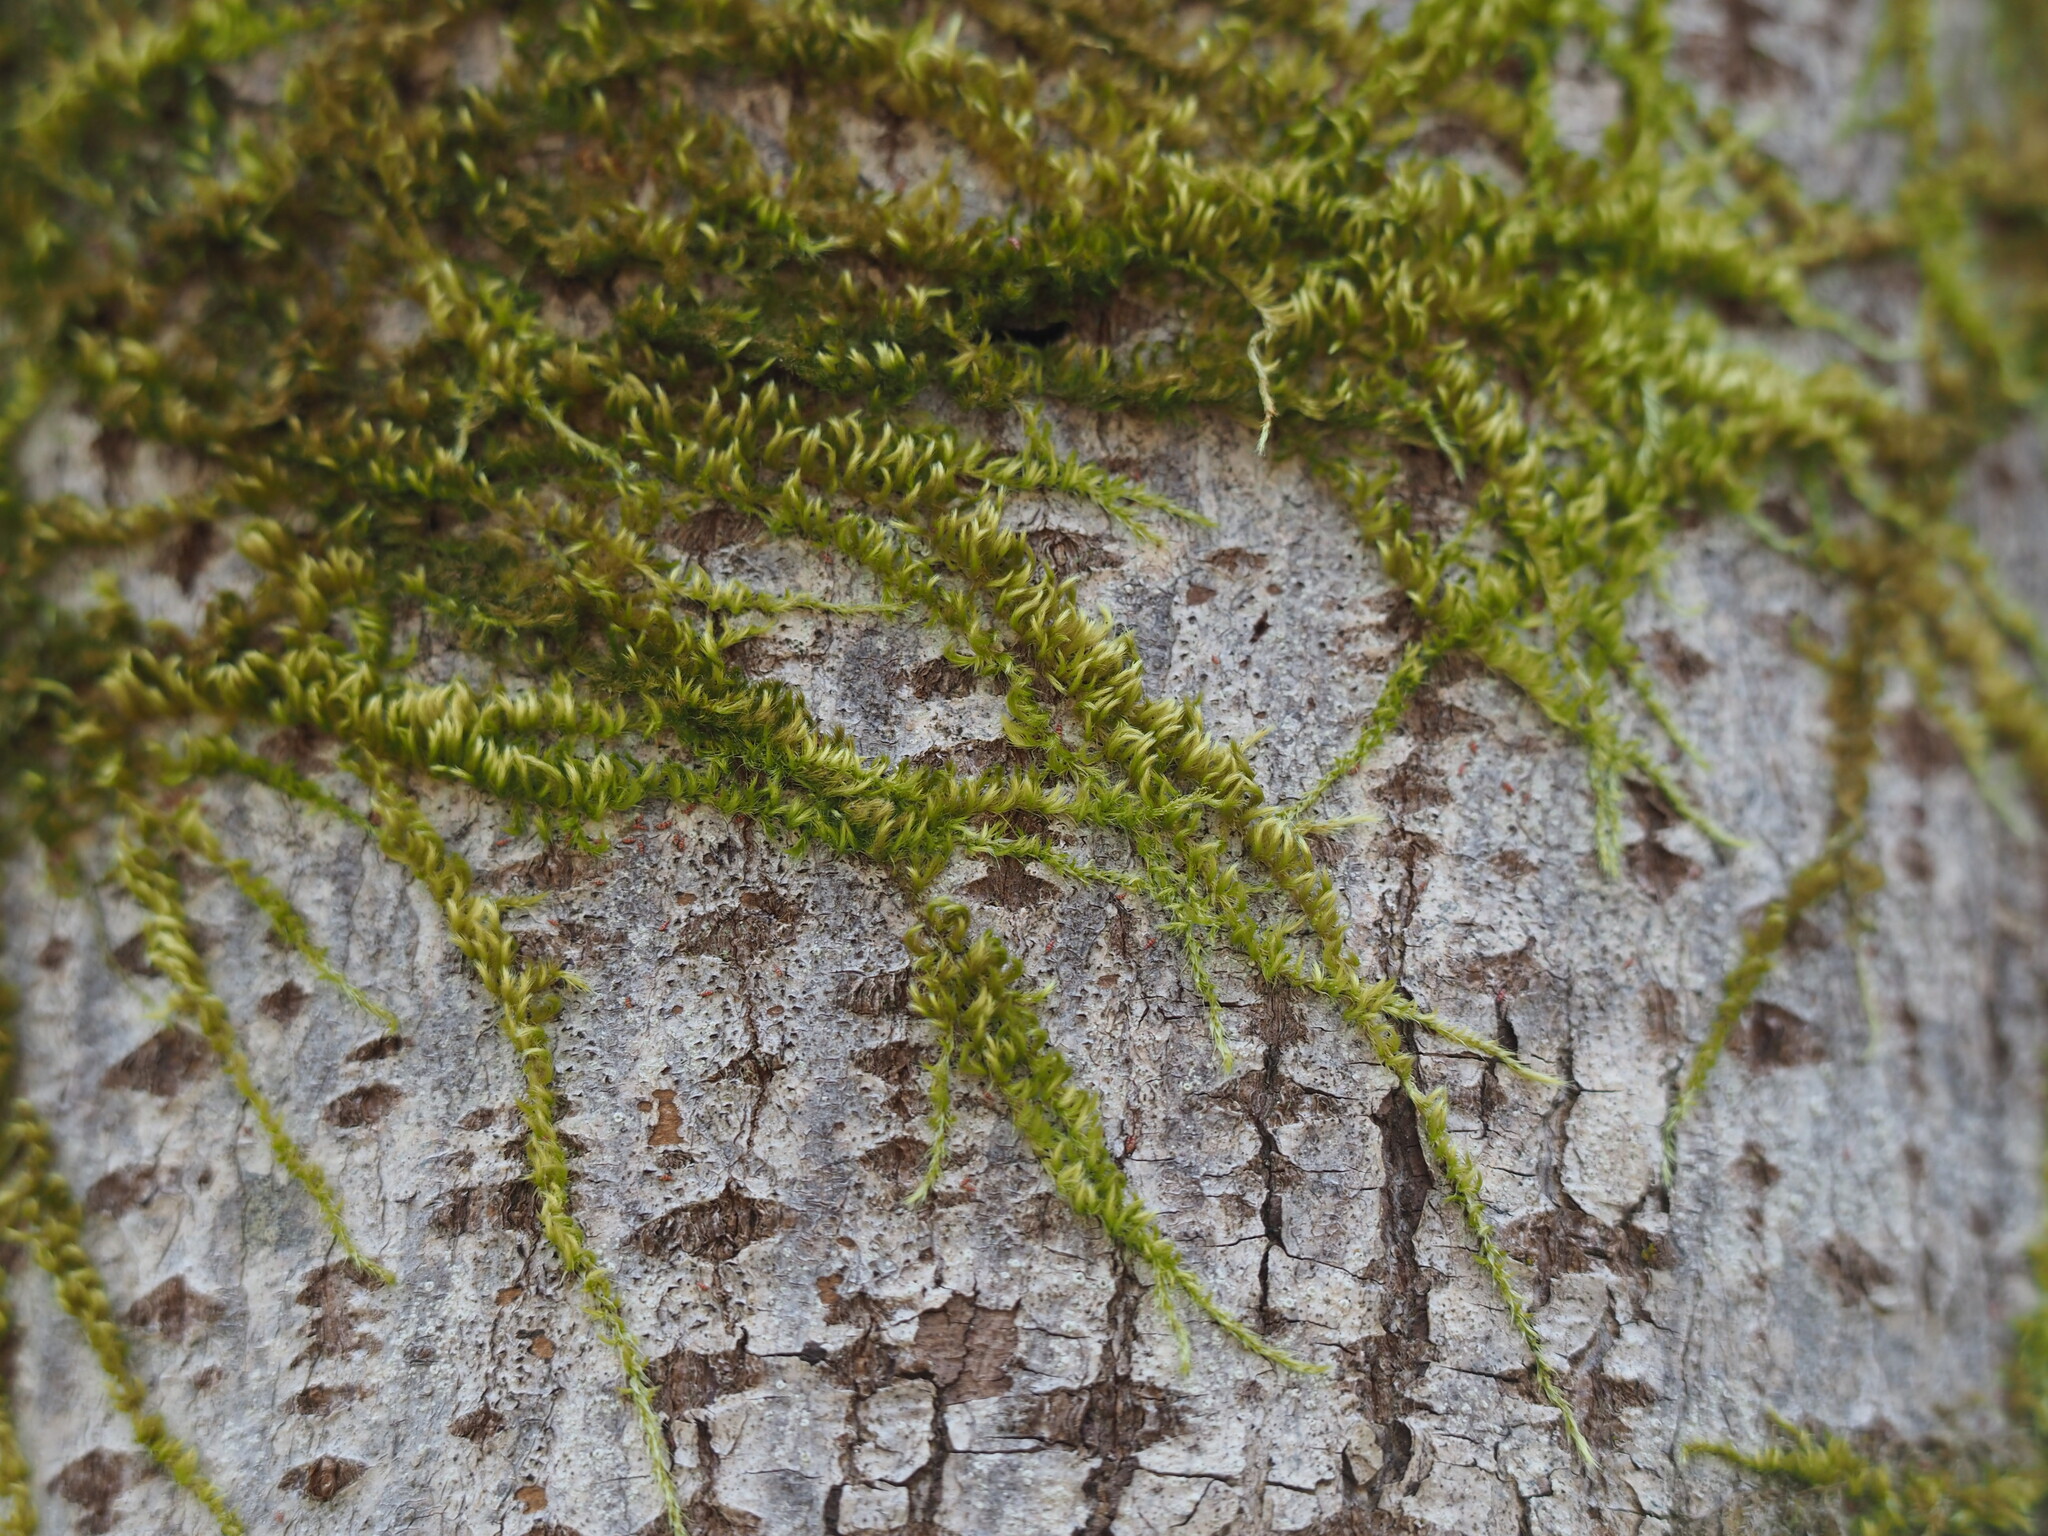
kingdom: Plantae
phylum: Bryophyta
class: Bryopsida
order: Hypnales
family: Brachytheciaceae
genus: Homalothecium
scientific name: Homalothecium nuttallii
